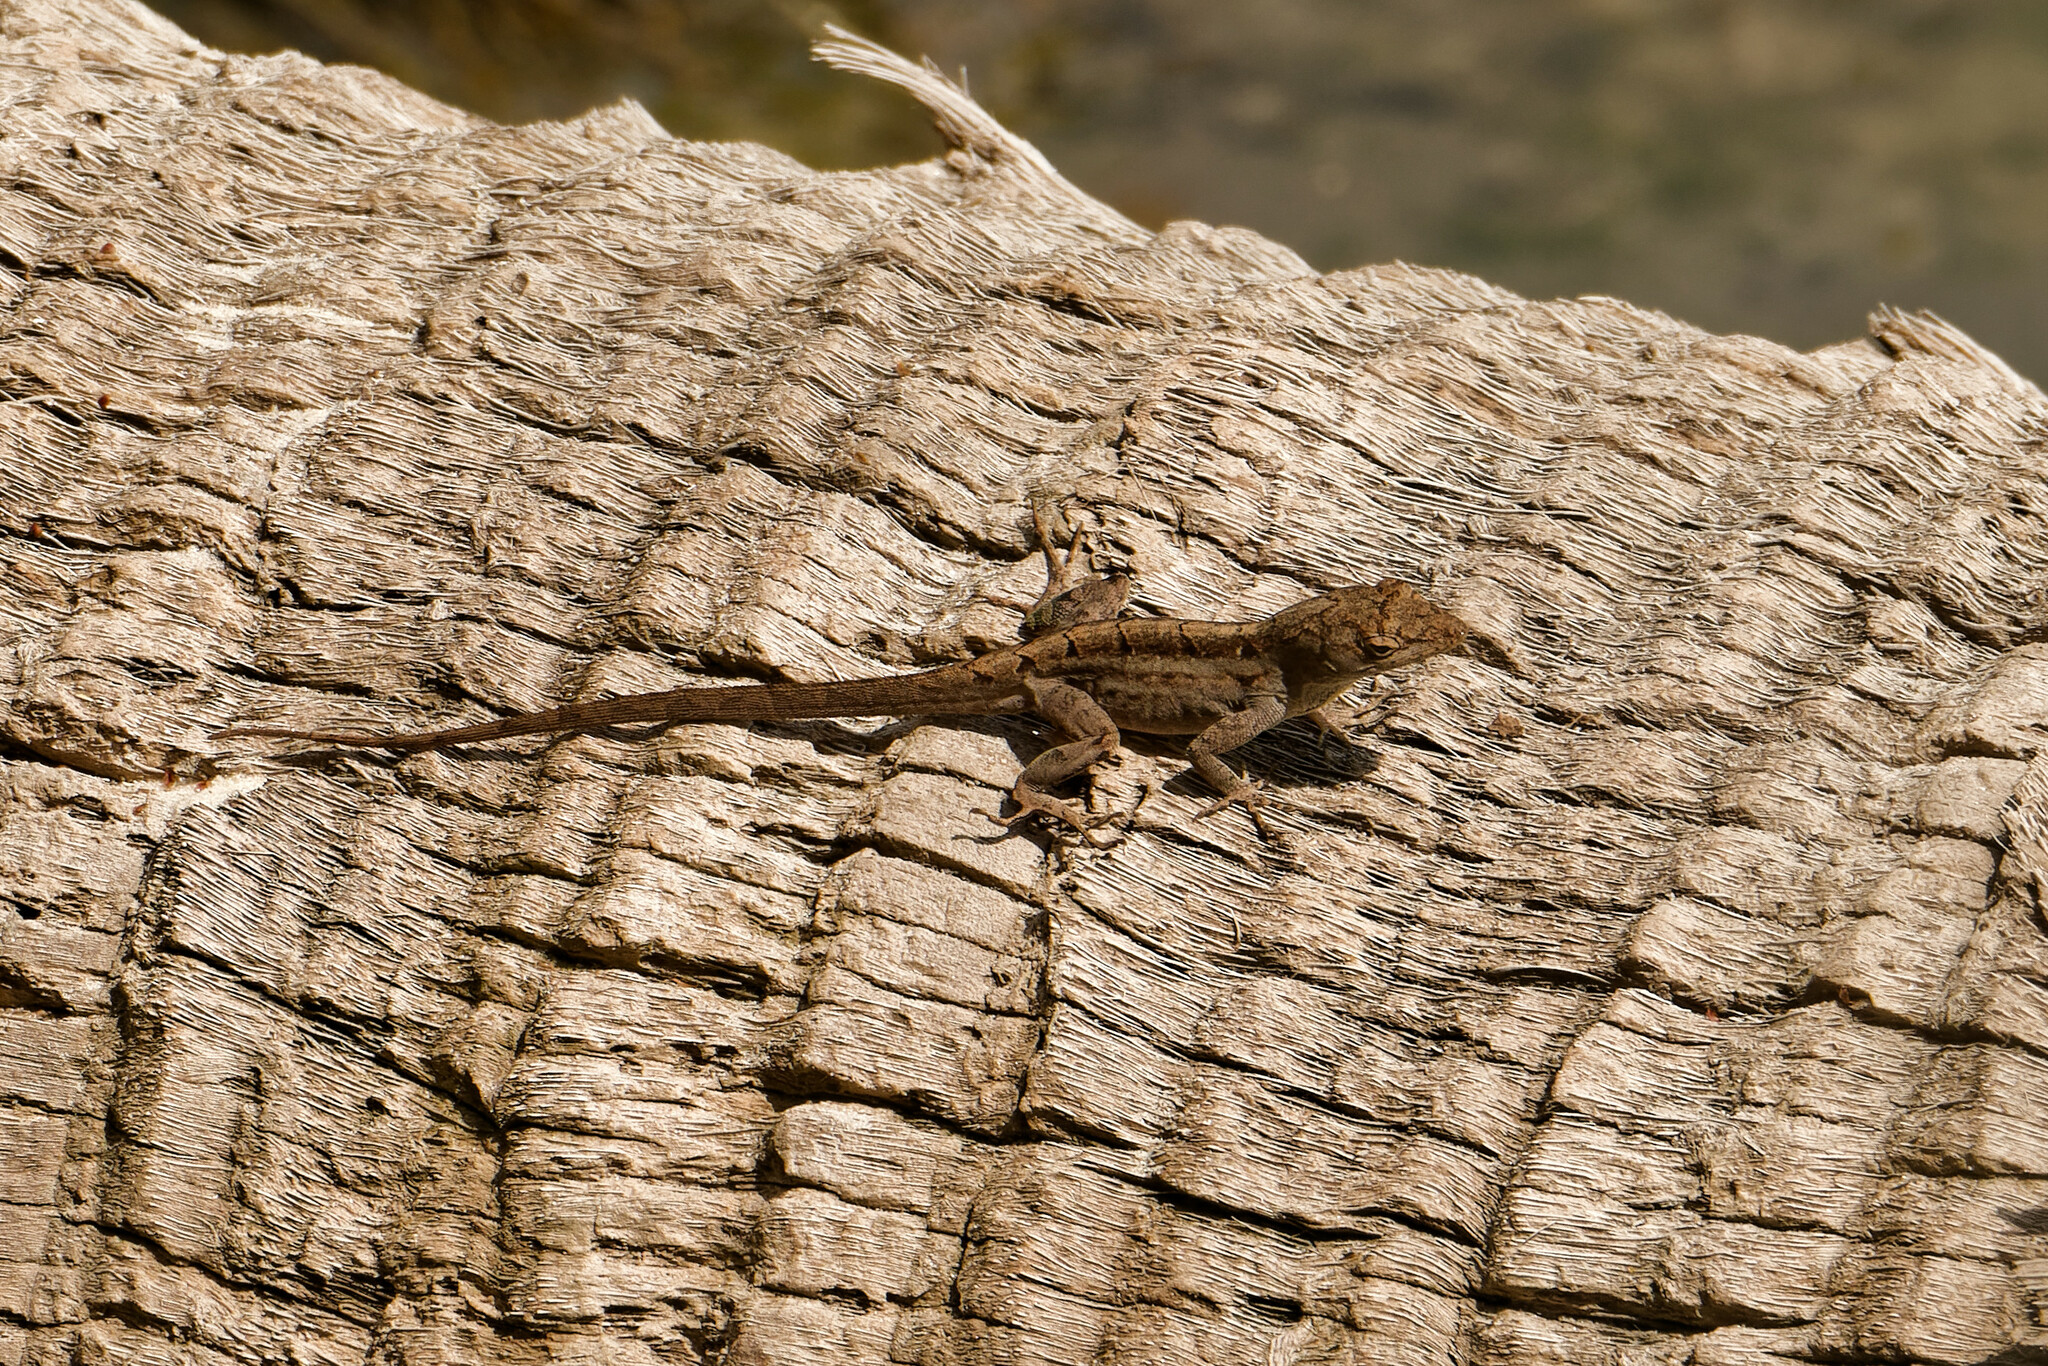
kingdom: Animalia
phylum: Chordata
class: Squamata
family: Dactyloidae
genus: Anolis
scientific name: Anolis sagrei
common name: Brown anole
